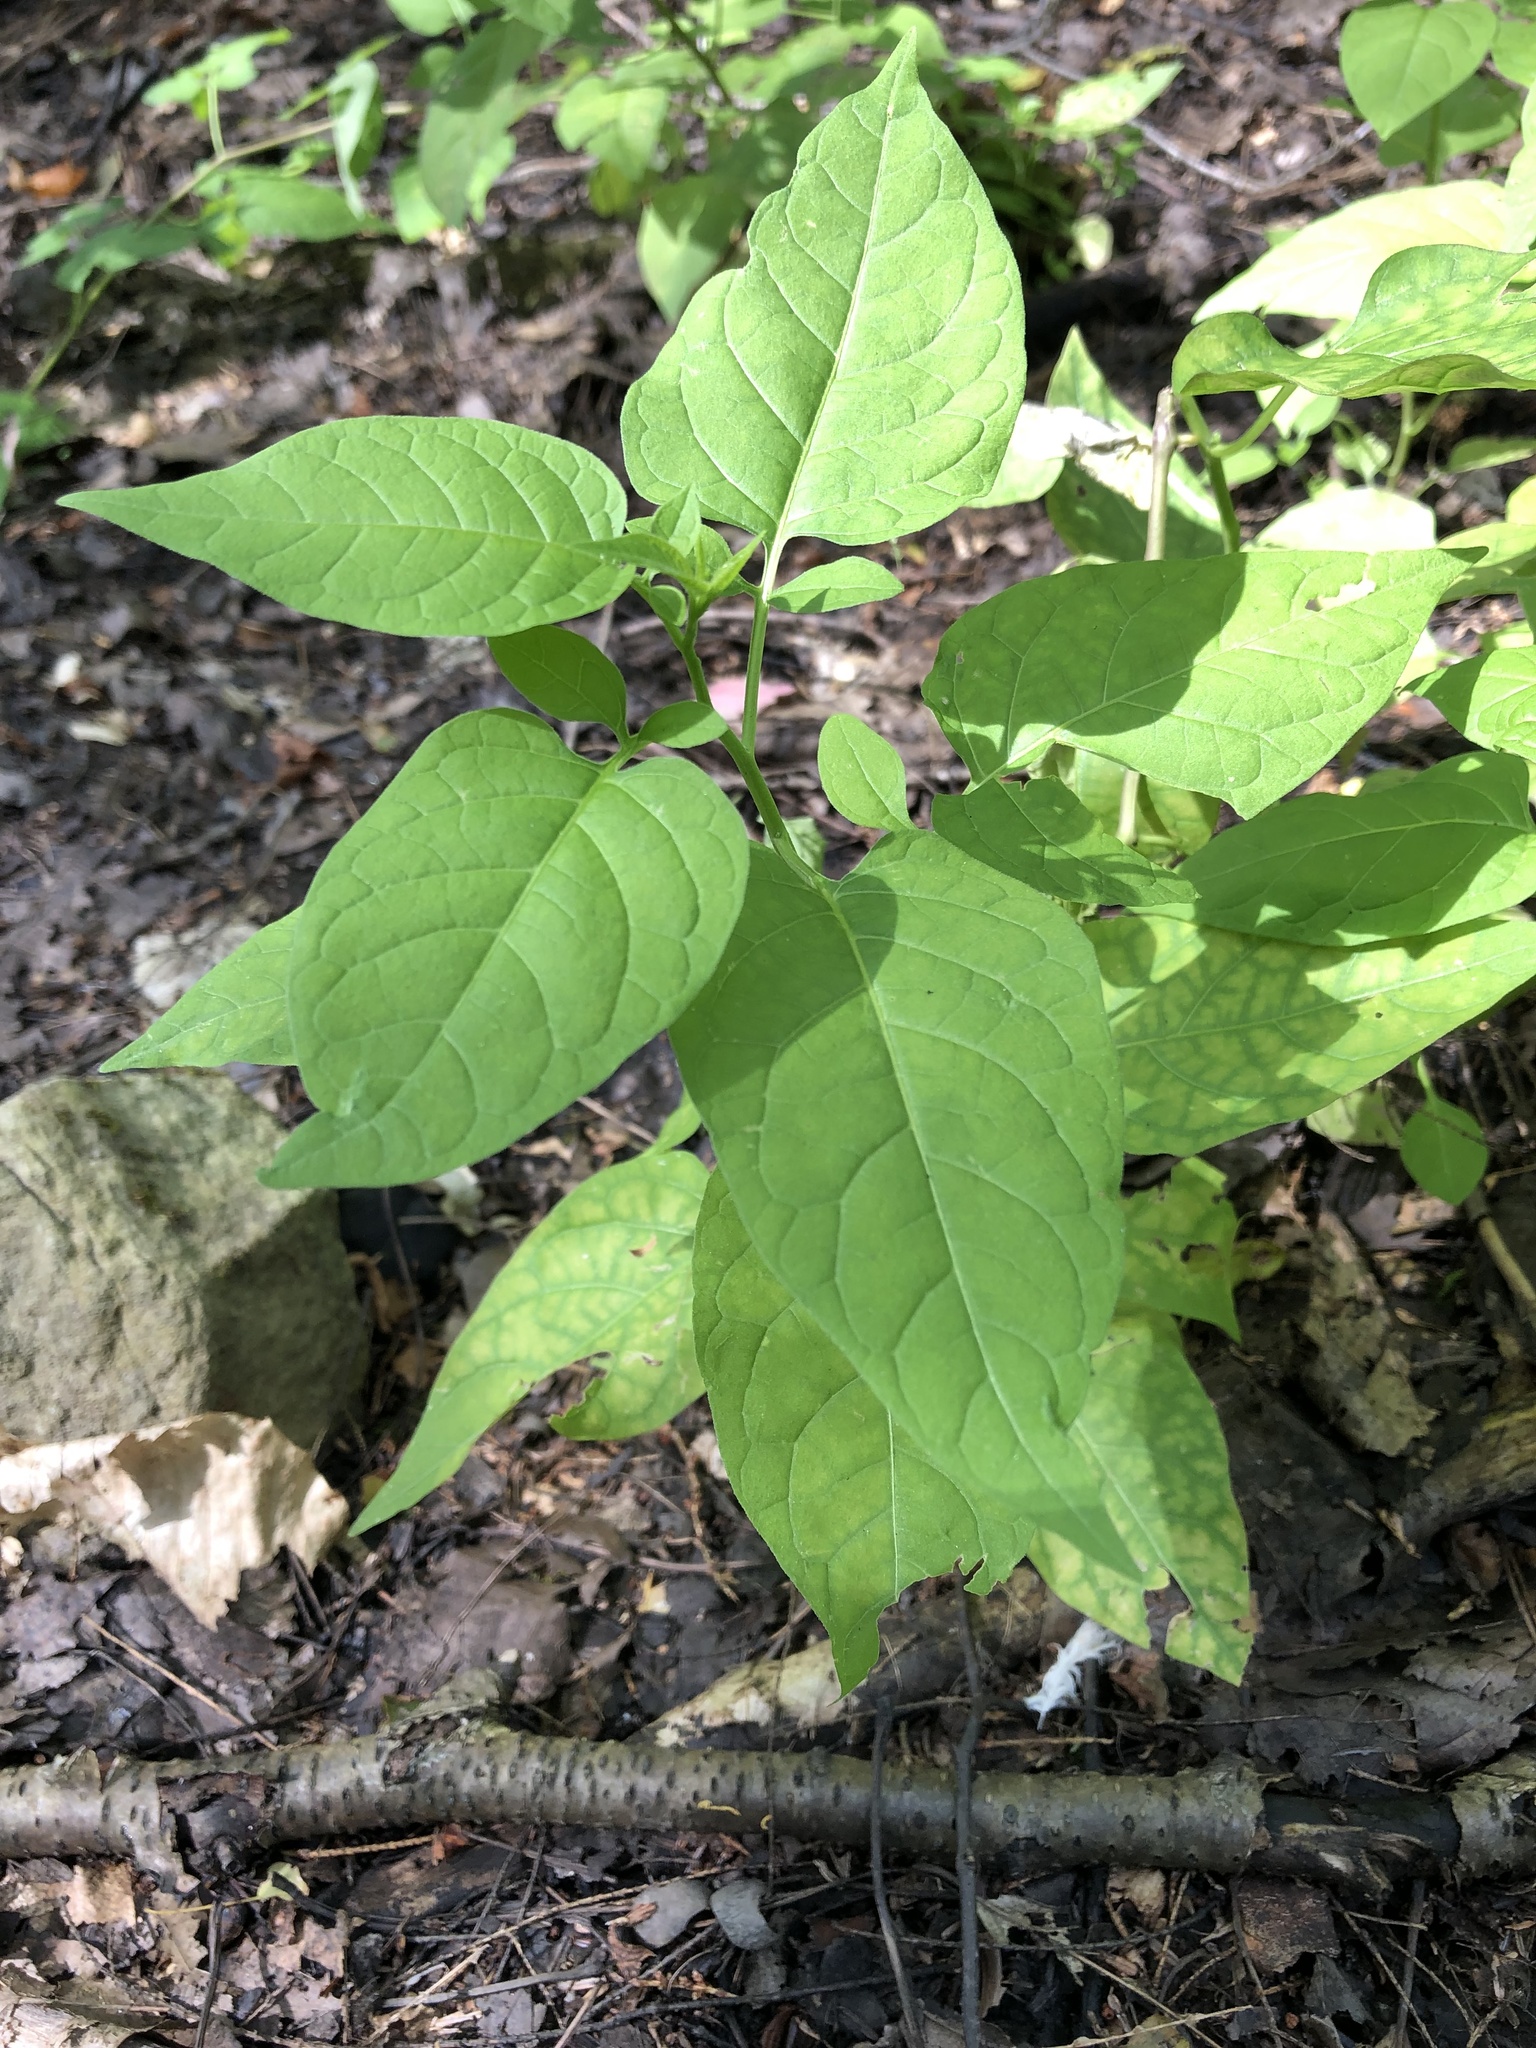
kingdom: Plantae
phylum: Tracheophyta
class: Magnoliopsida
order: Solanales
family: Solanaceae
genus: Solanum
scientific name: Solanum dulcamara
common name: Climbing nightshade
